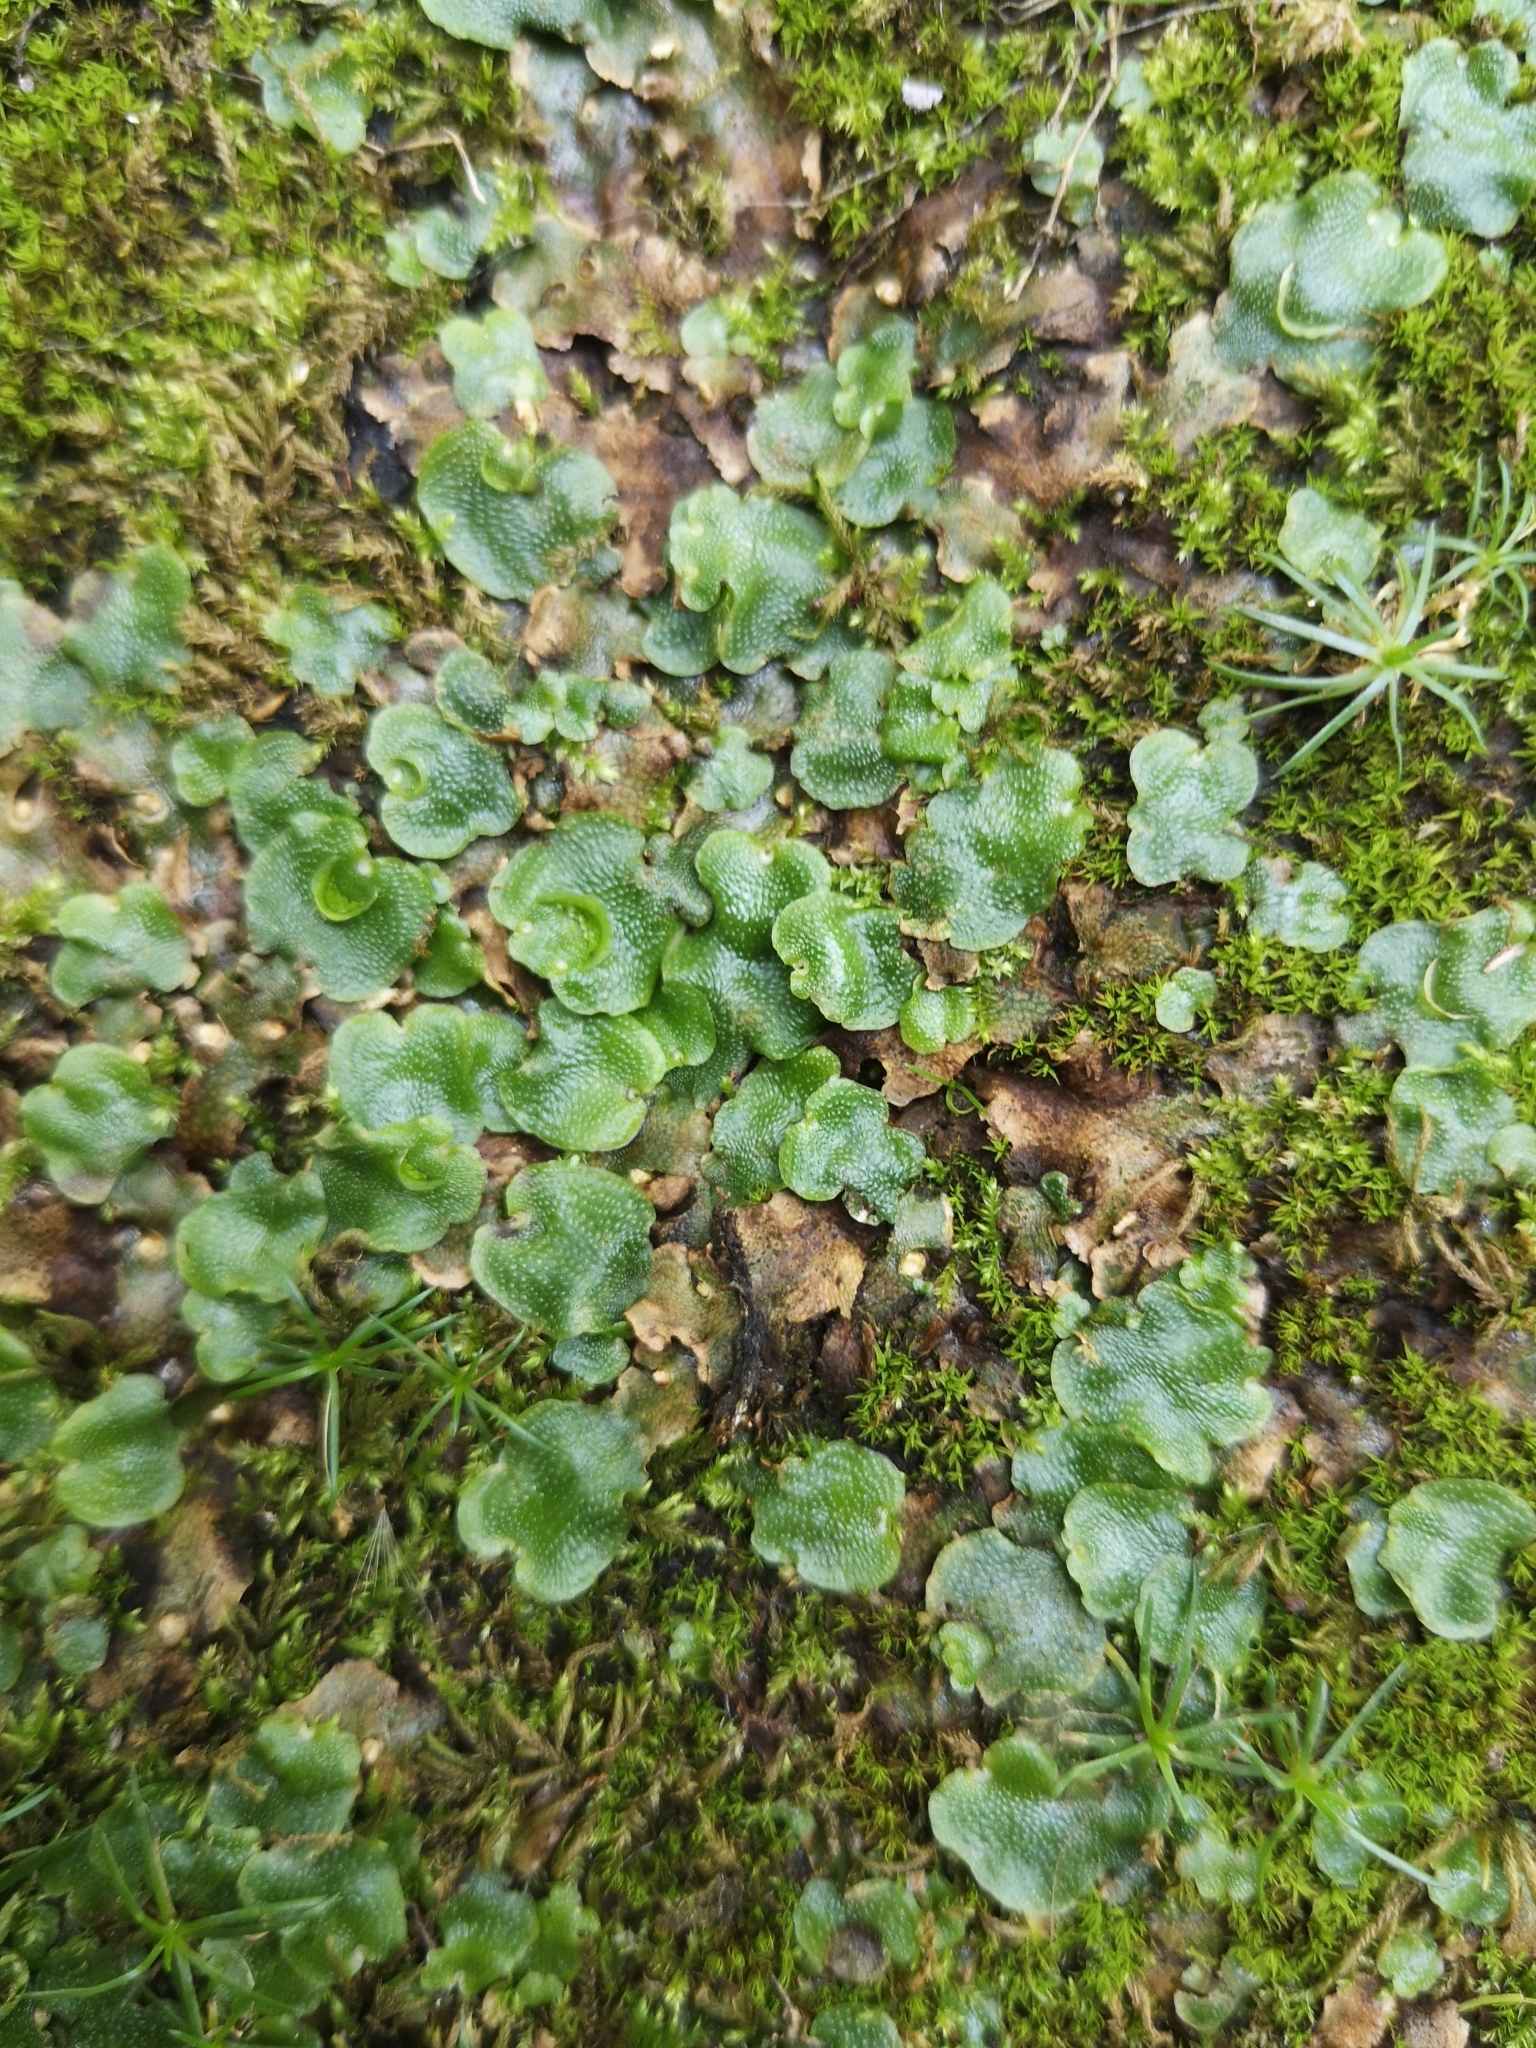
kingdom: Plantae
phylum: Marchantiophyta
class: Marchantiopsida
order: Lunulariales
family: Lunulariaceae
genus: Lunularia
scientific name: Lunularia cruciata
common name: Crescent-cup liverwort
